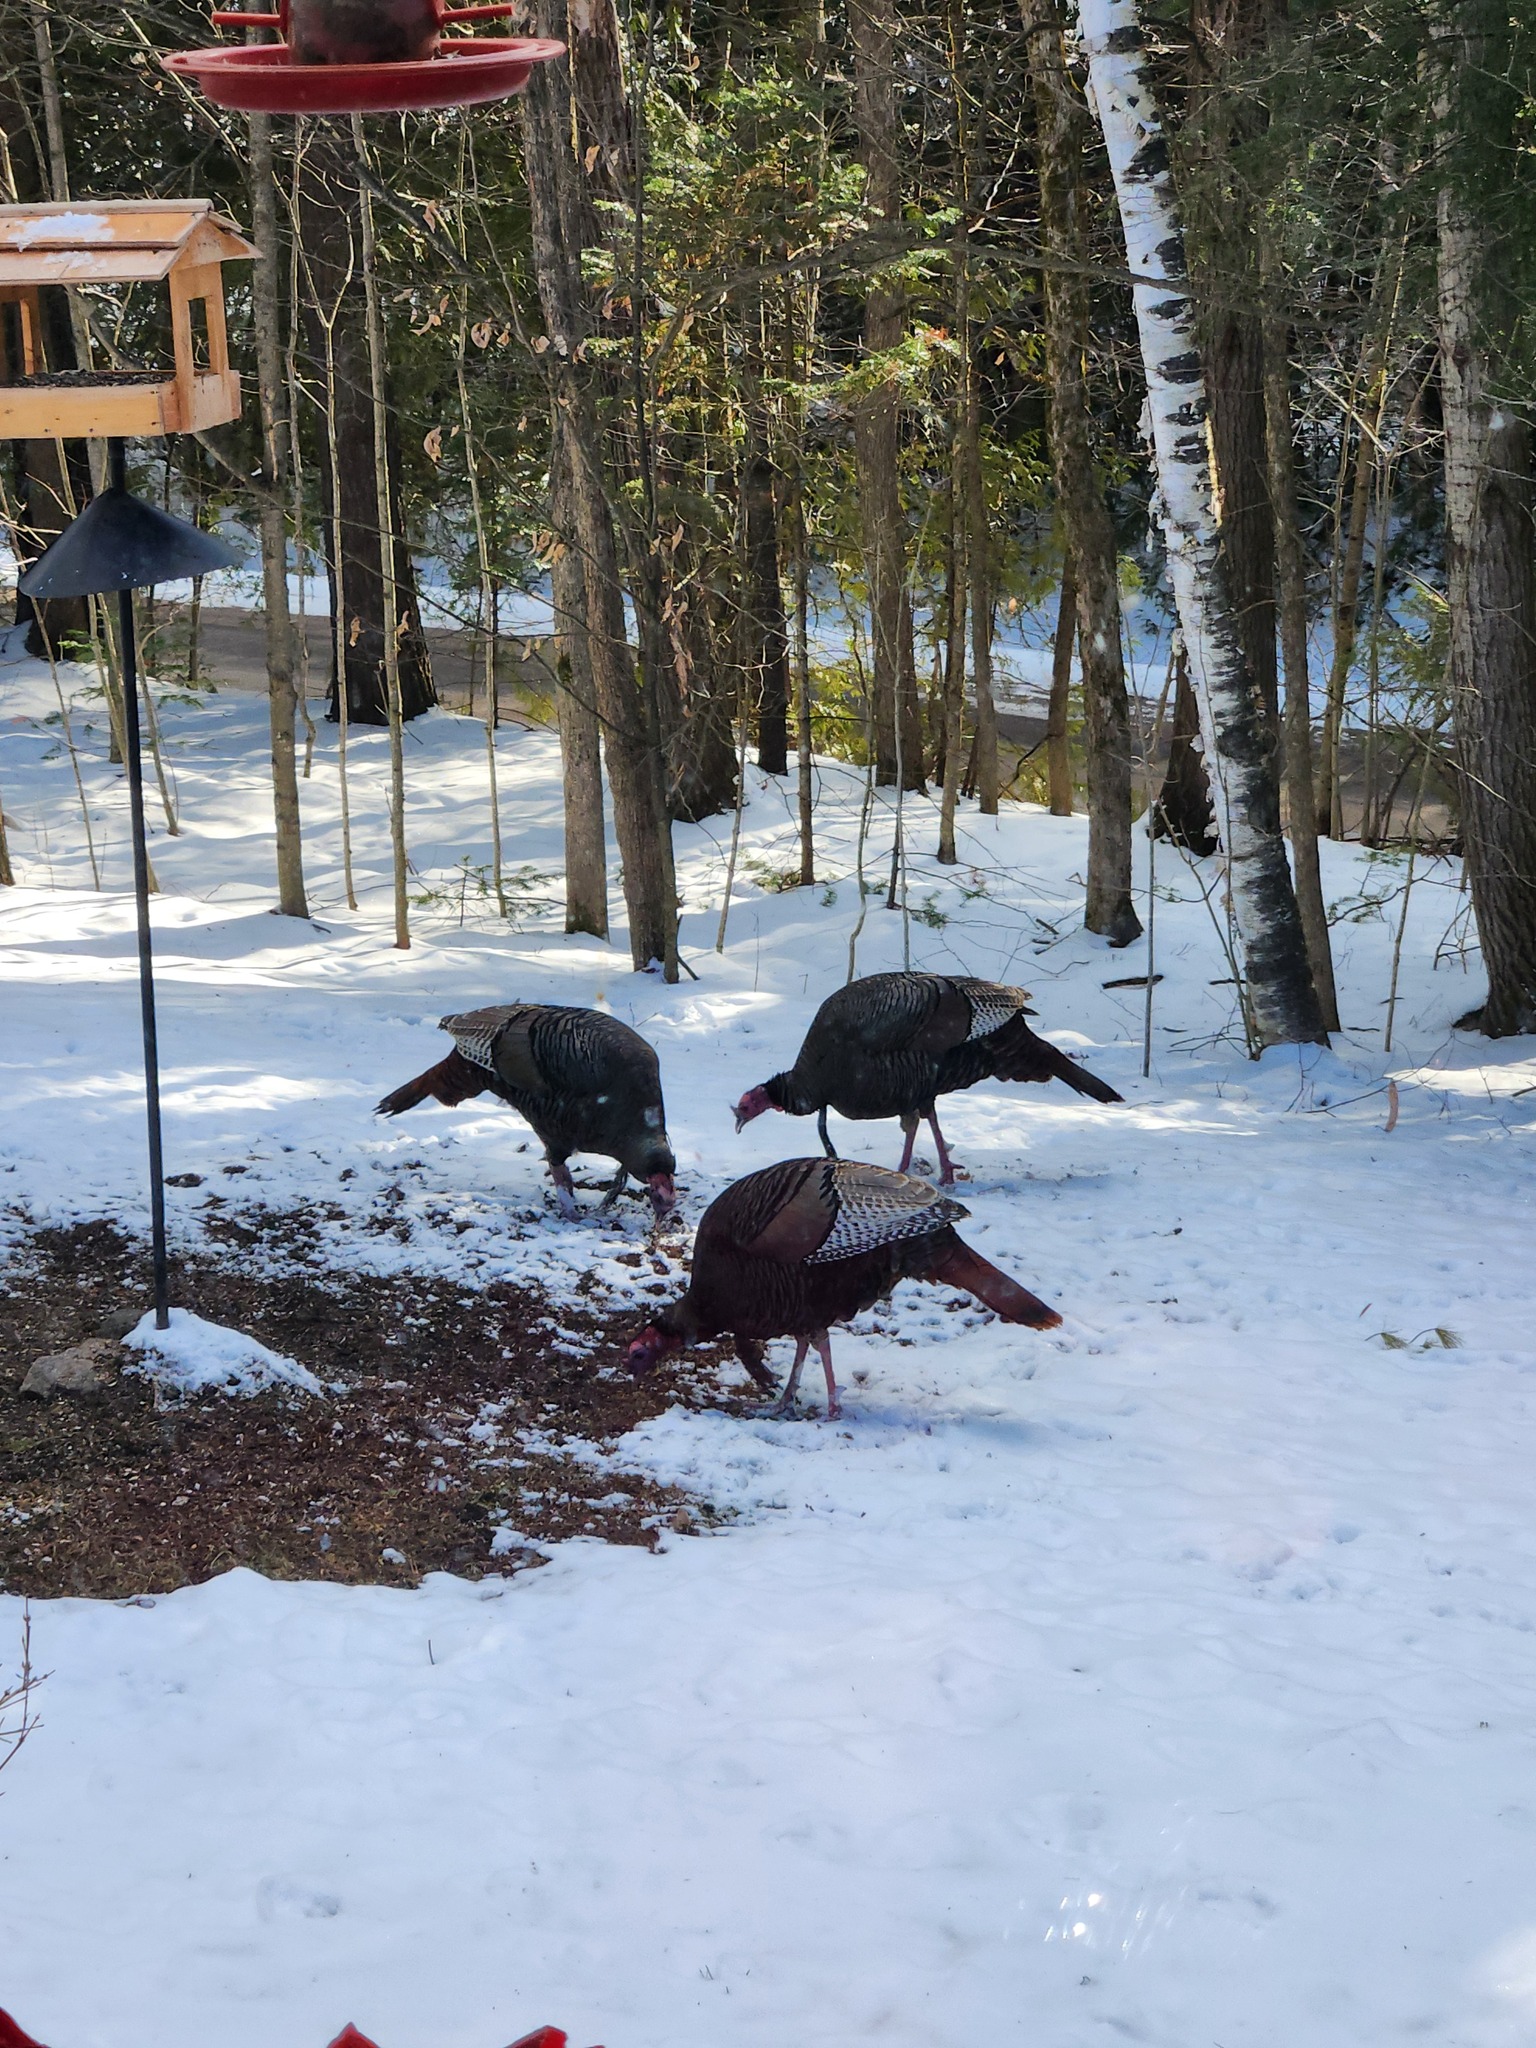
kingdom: Animalia
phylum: Chordata
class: Aves
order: Galliformes
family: Phasianidae
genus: Meleagris
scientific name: Meleagris gallopavo
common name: Wild turkey
